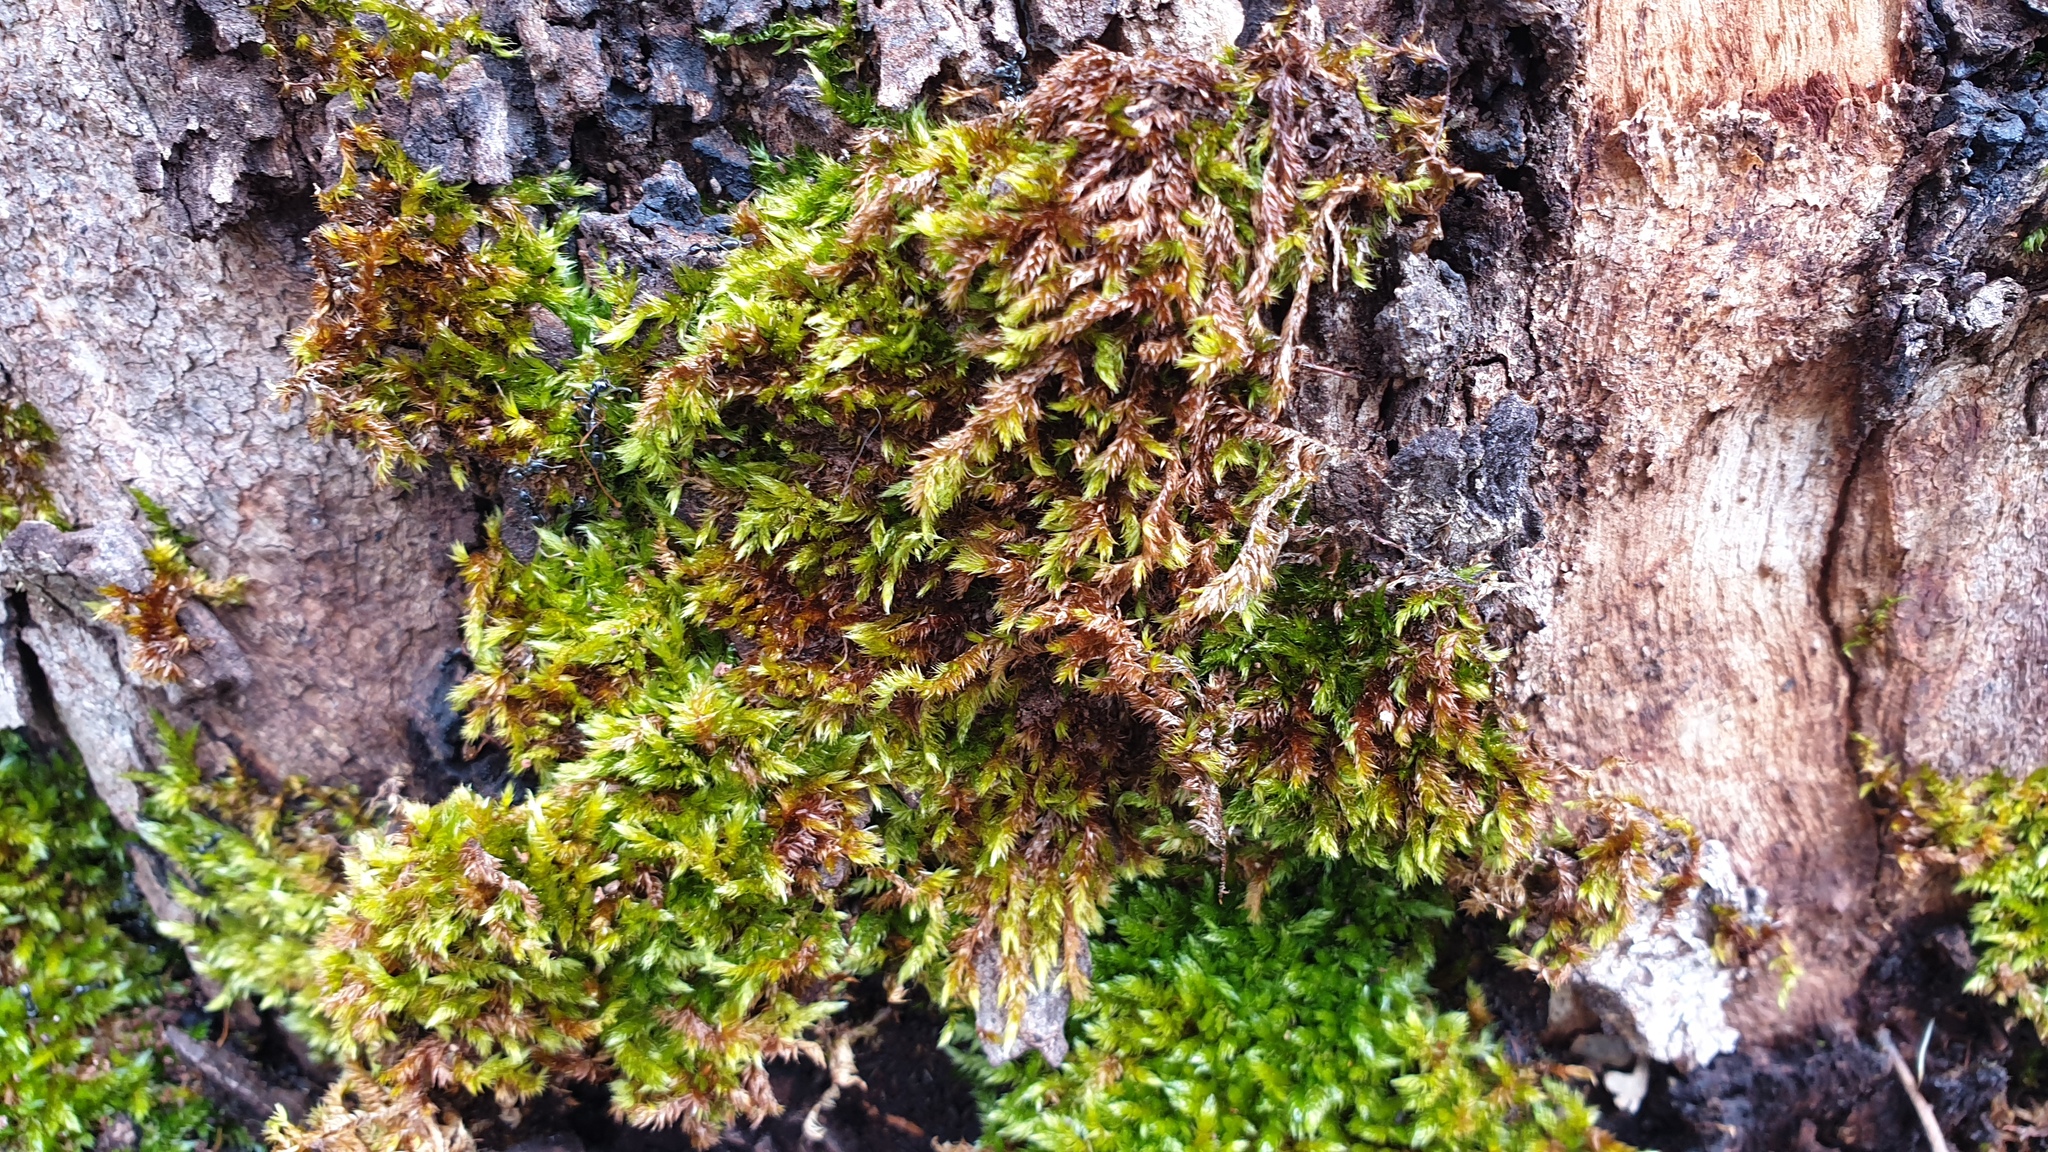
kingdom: Plantae
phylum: Bryophyta
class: Bryopsida
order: Hypnales
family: Sematophyllaceae
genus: Sematophyllum
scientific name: Sematophyllum homomallum
